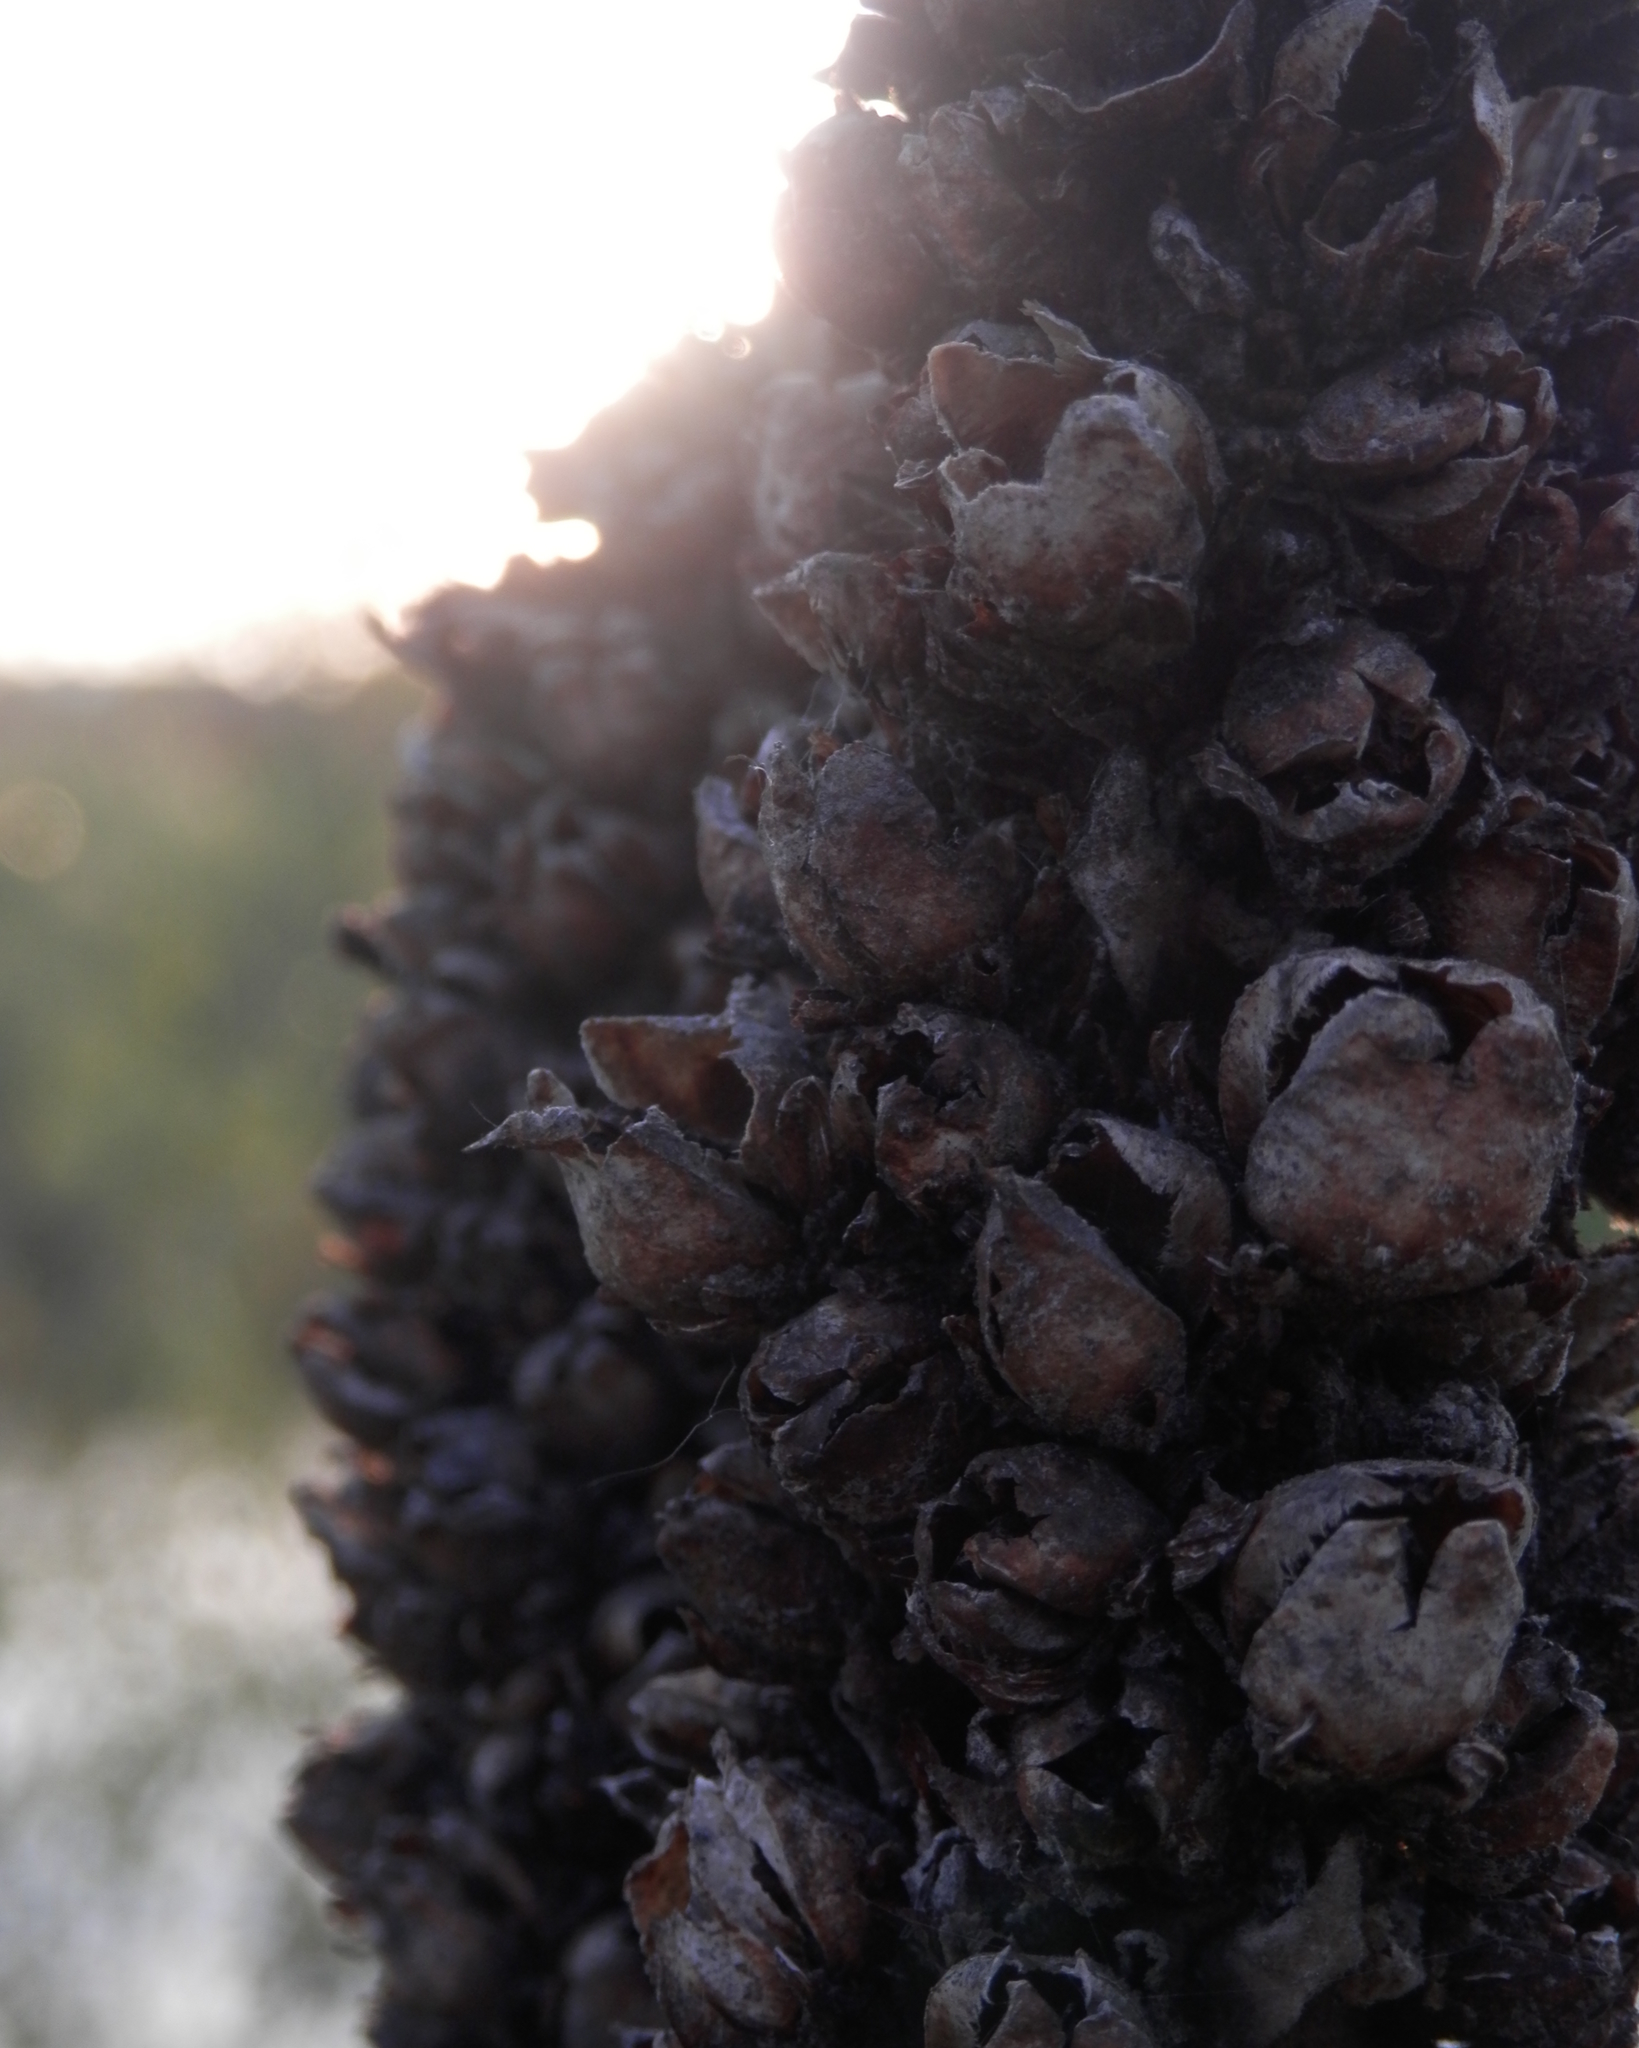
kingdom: Plantae
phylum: Tracheophyta
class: Magnoliopsida
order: Lamiales
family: Scrophulariaceae
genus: Verbascum
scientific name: Verbascum thapsus
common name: Common mullein
